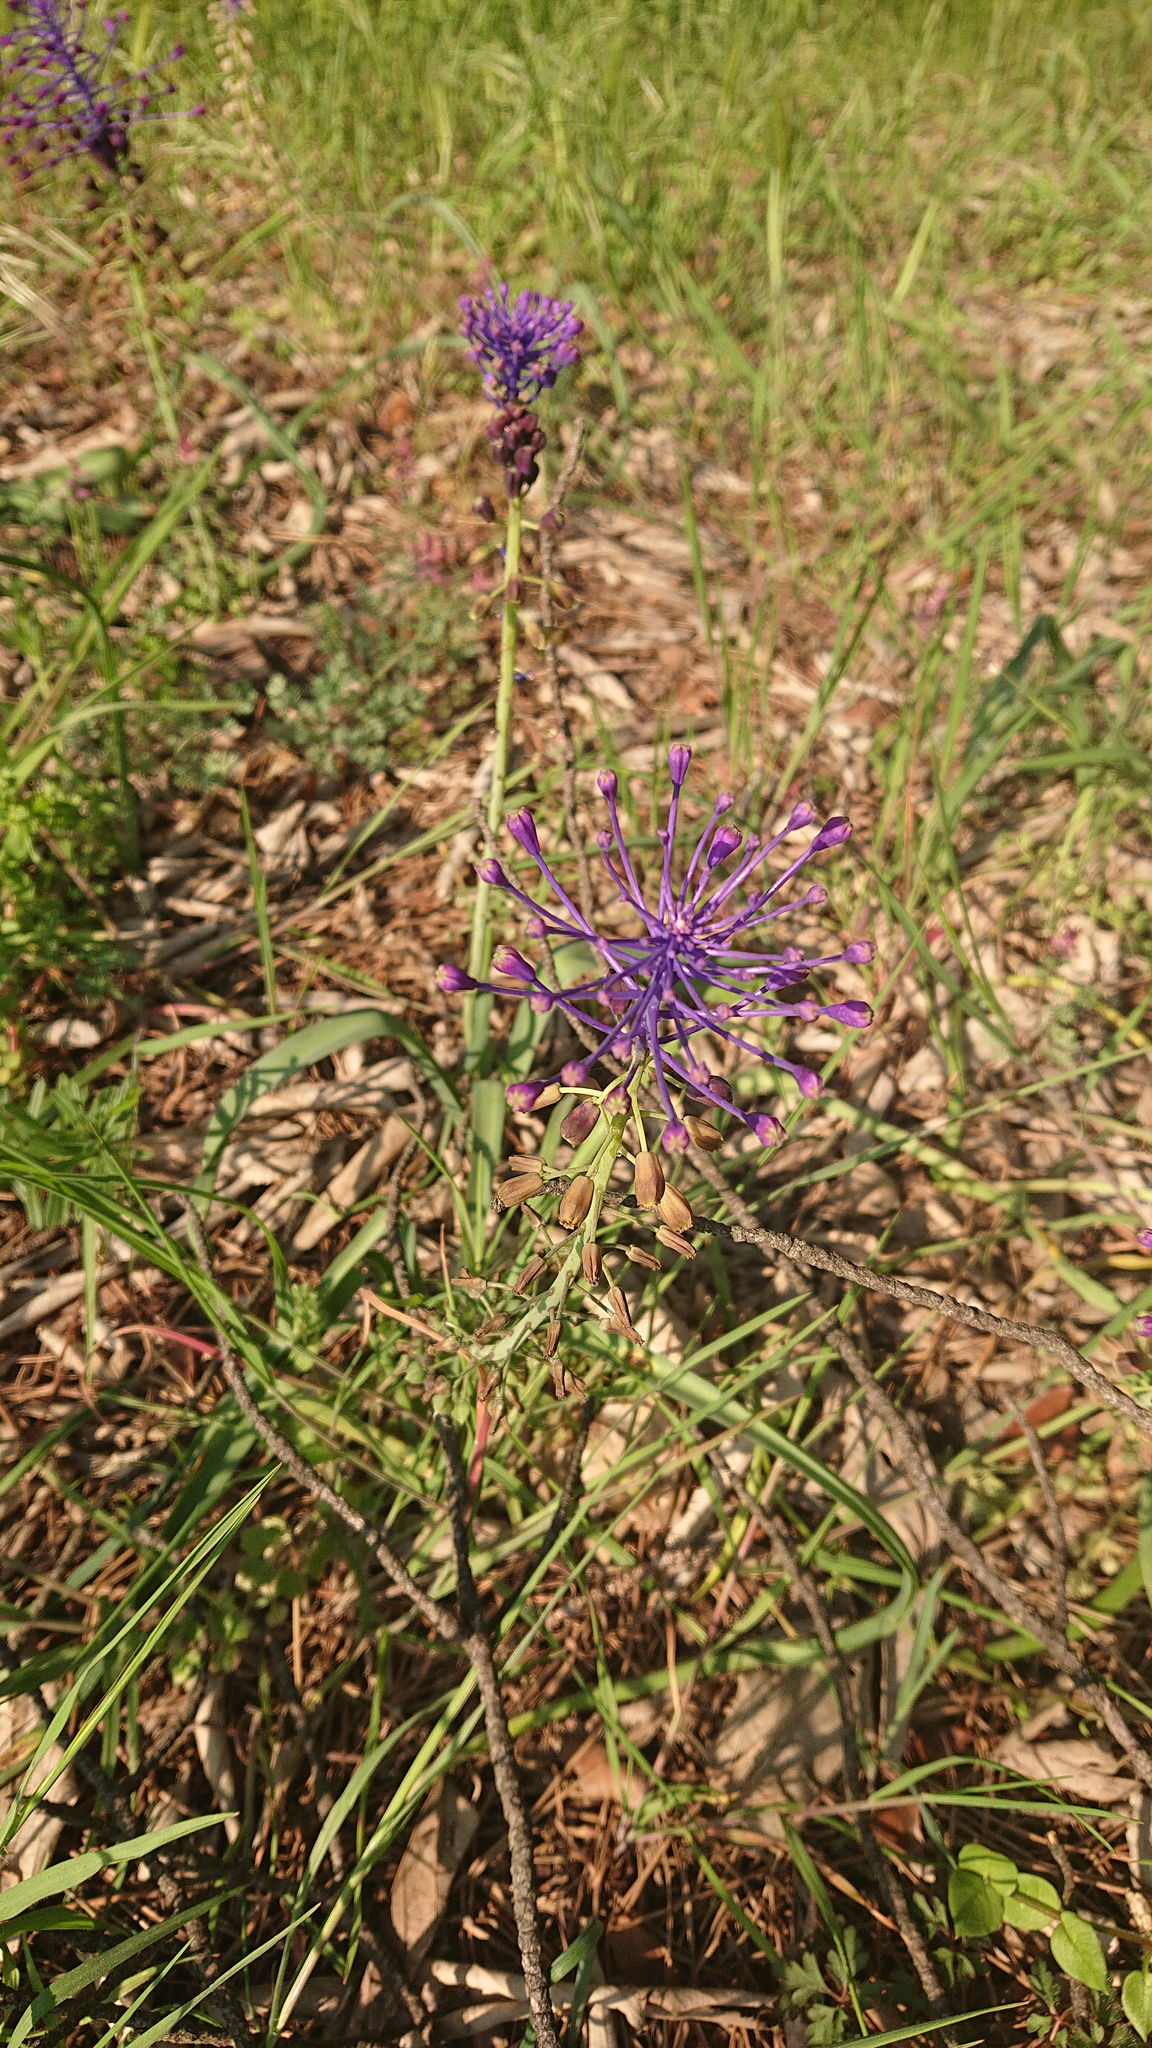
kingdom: Plantae
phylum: Tracheophyta
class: Liliopsida
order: Asparagales
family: Asparagaceae
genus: Muscari
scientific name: Muscari comosum
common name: Tassel hyacinth
